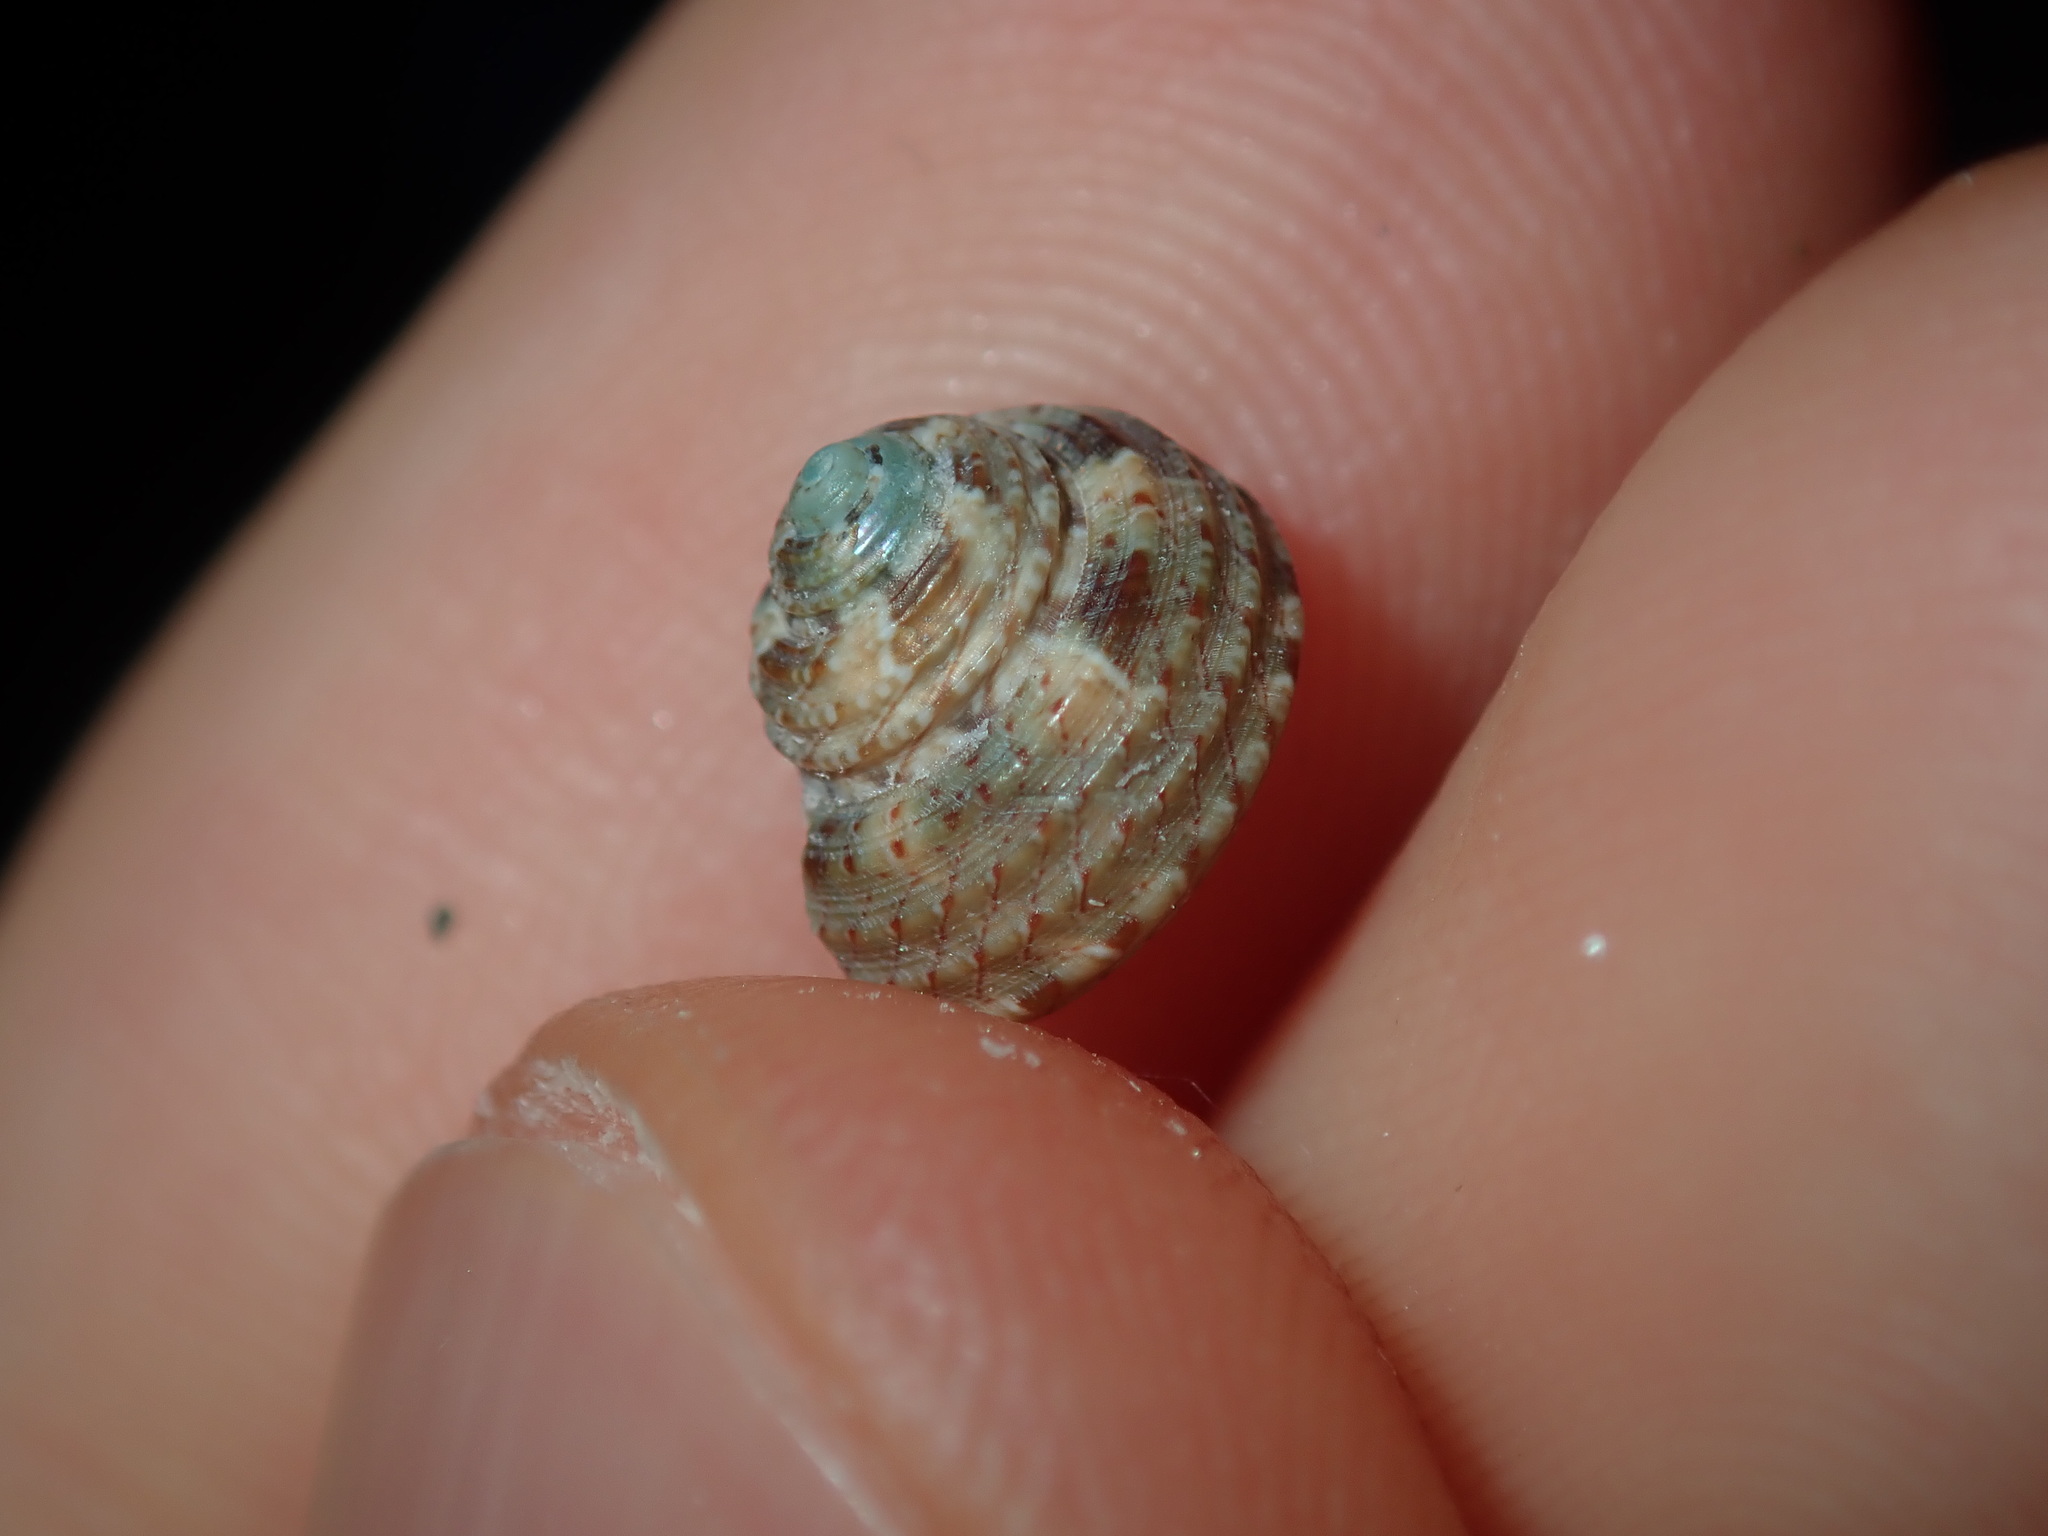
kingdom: Animalia
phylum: Mollusca
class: Gastropoda
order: Trochida
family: Trochidae
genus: Eurytrochus
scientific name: Eurytrochus strangei
